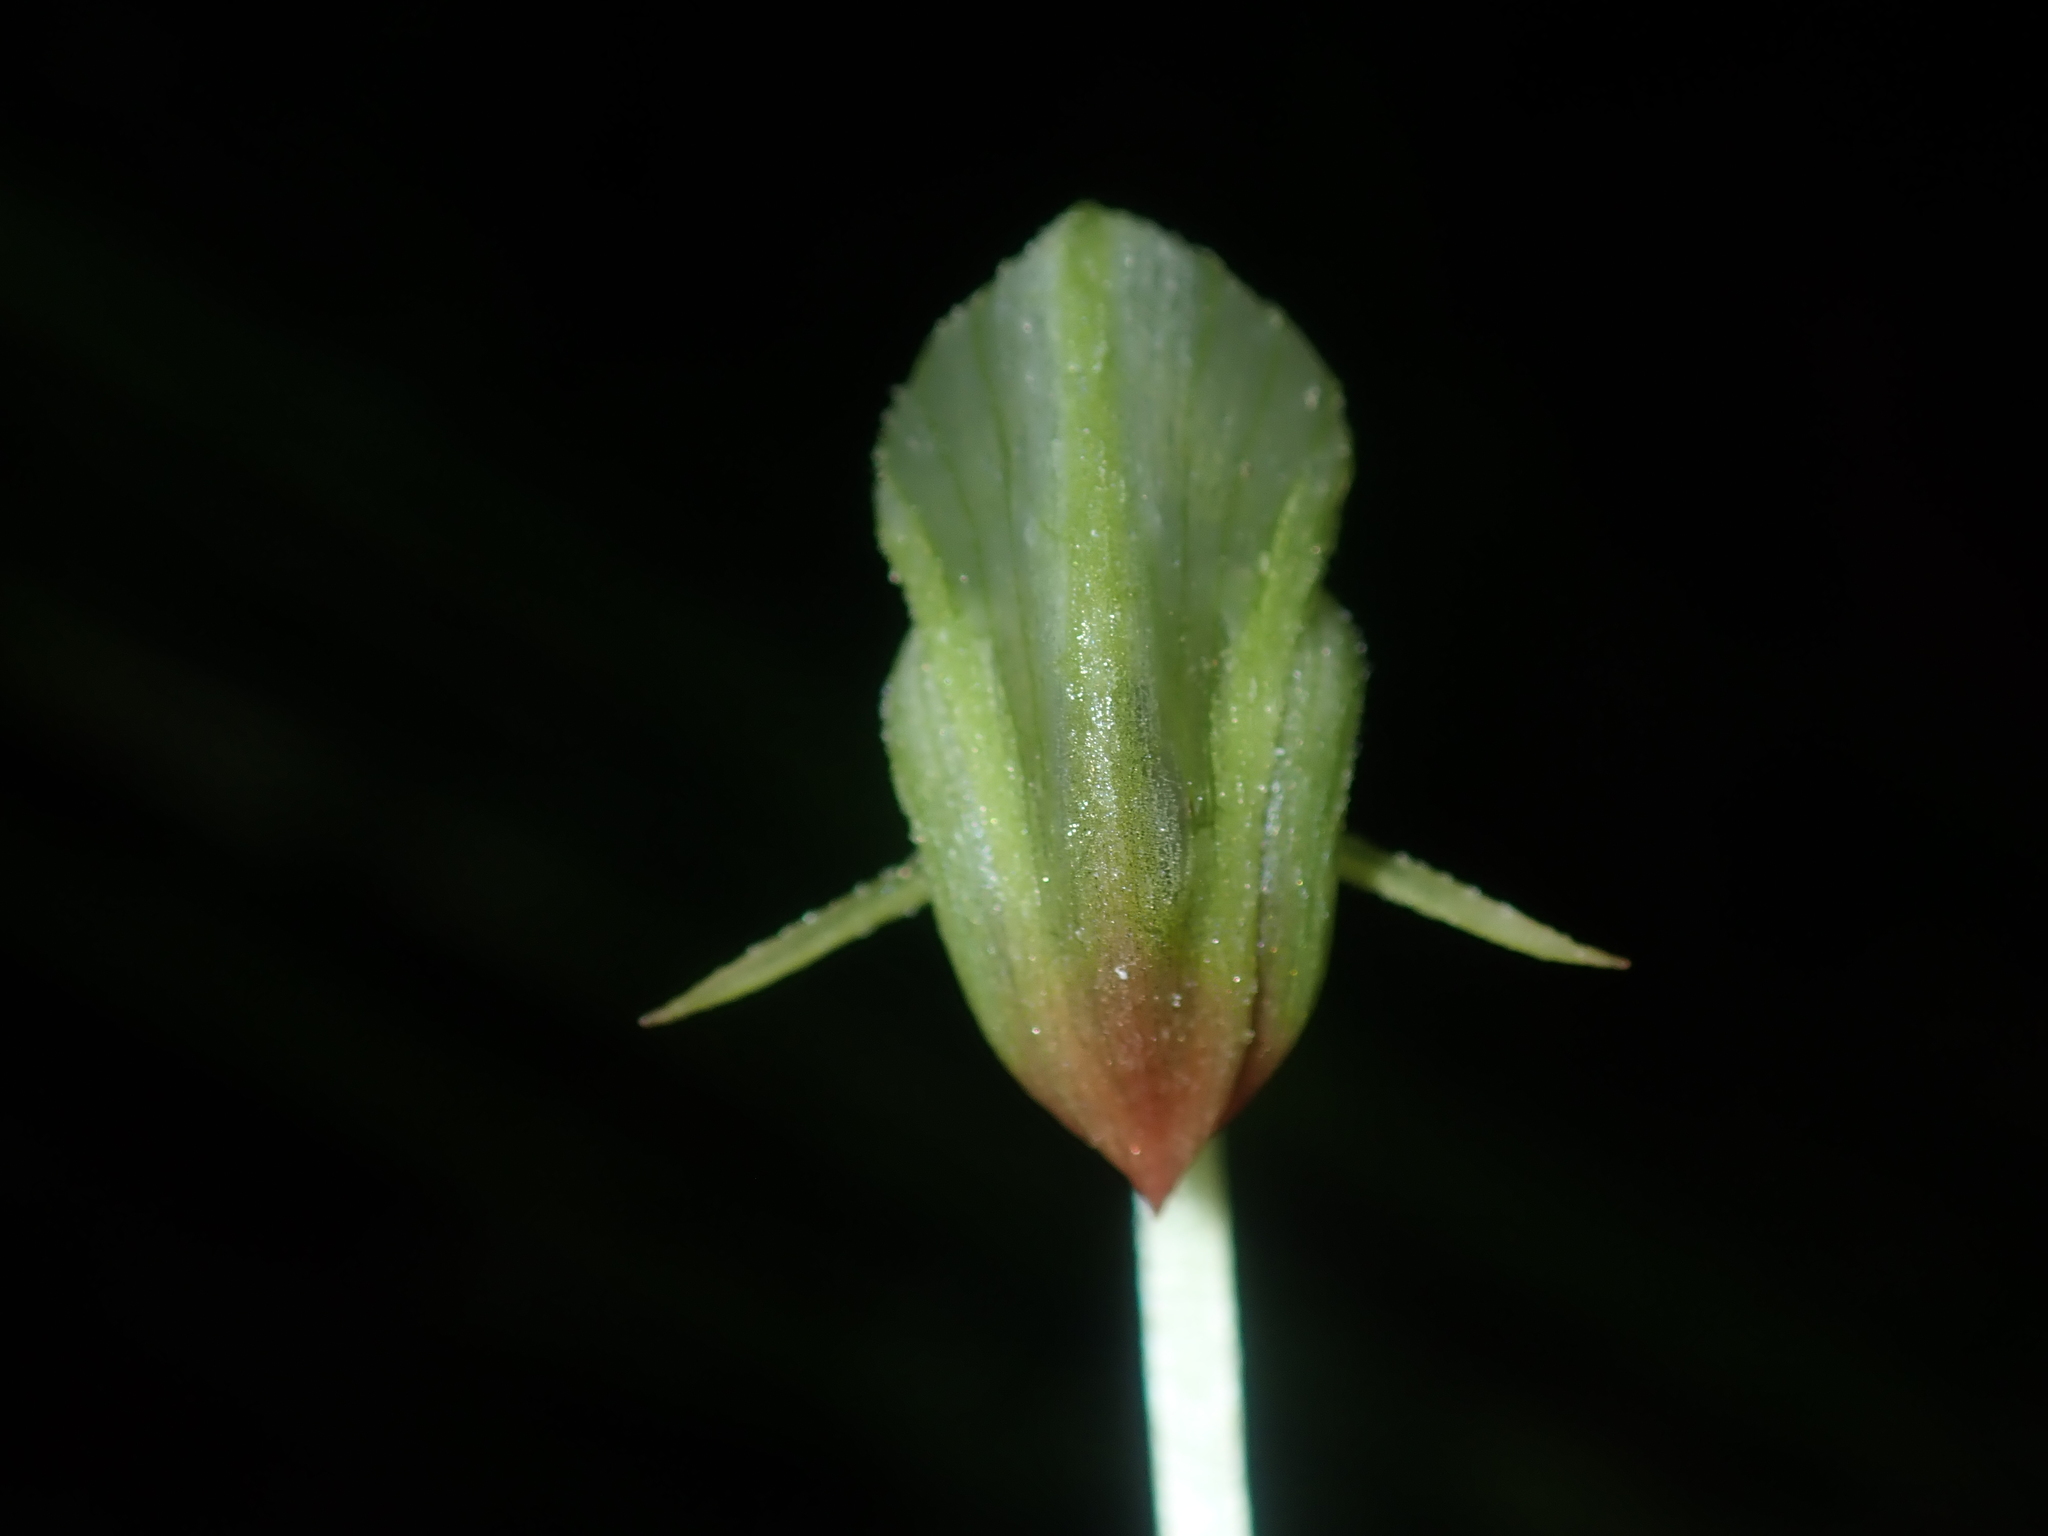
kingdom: Plantae
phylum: Tracheophyta
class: Liliopsida
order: Asparagales
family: Orchidaceae
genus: Pterostylis
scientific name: Pterostylis hispidula
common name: Box greenhood
